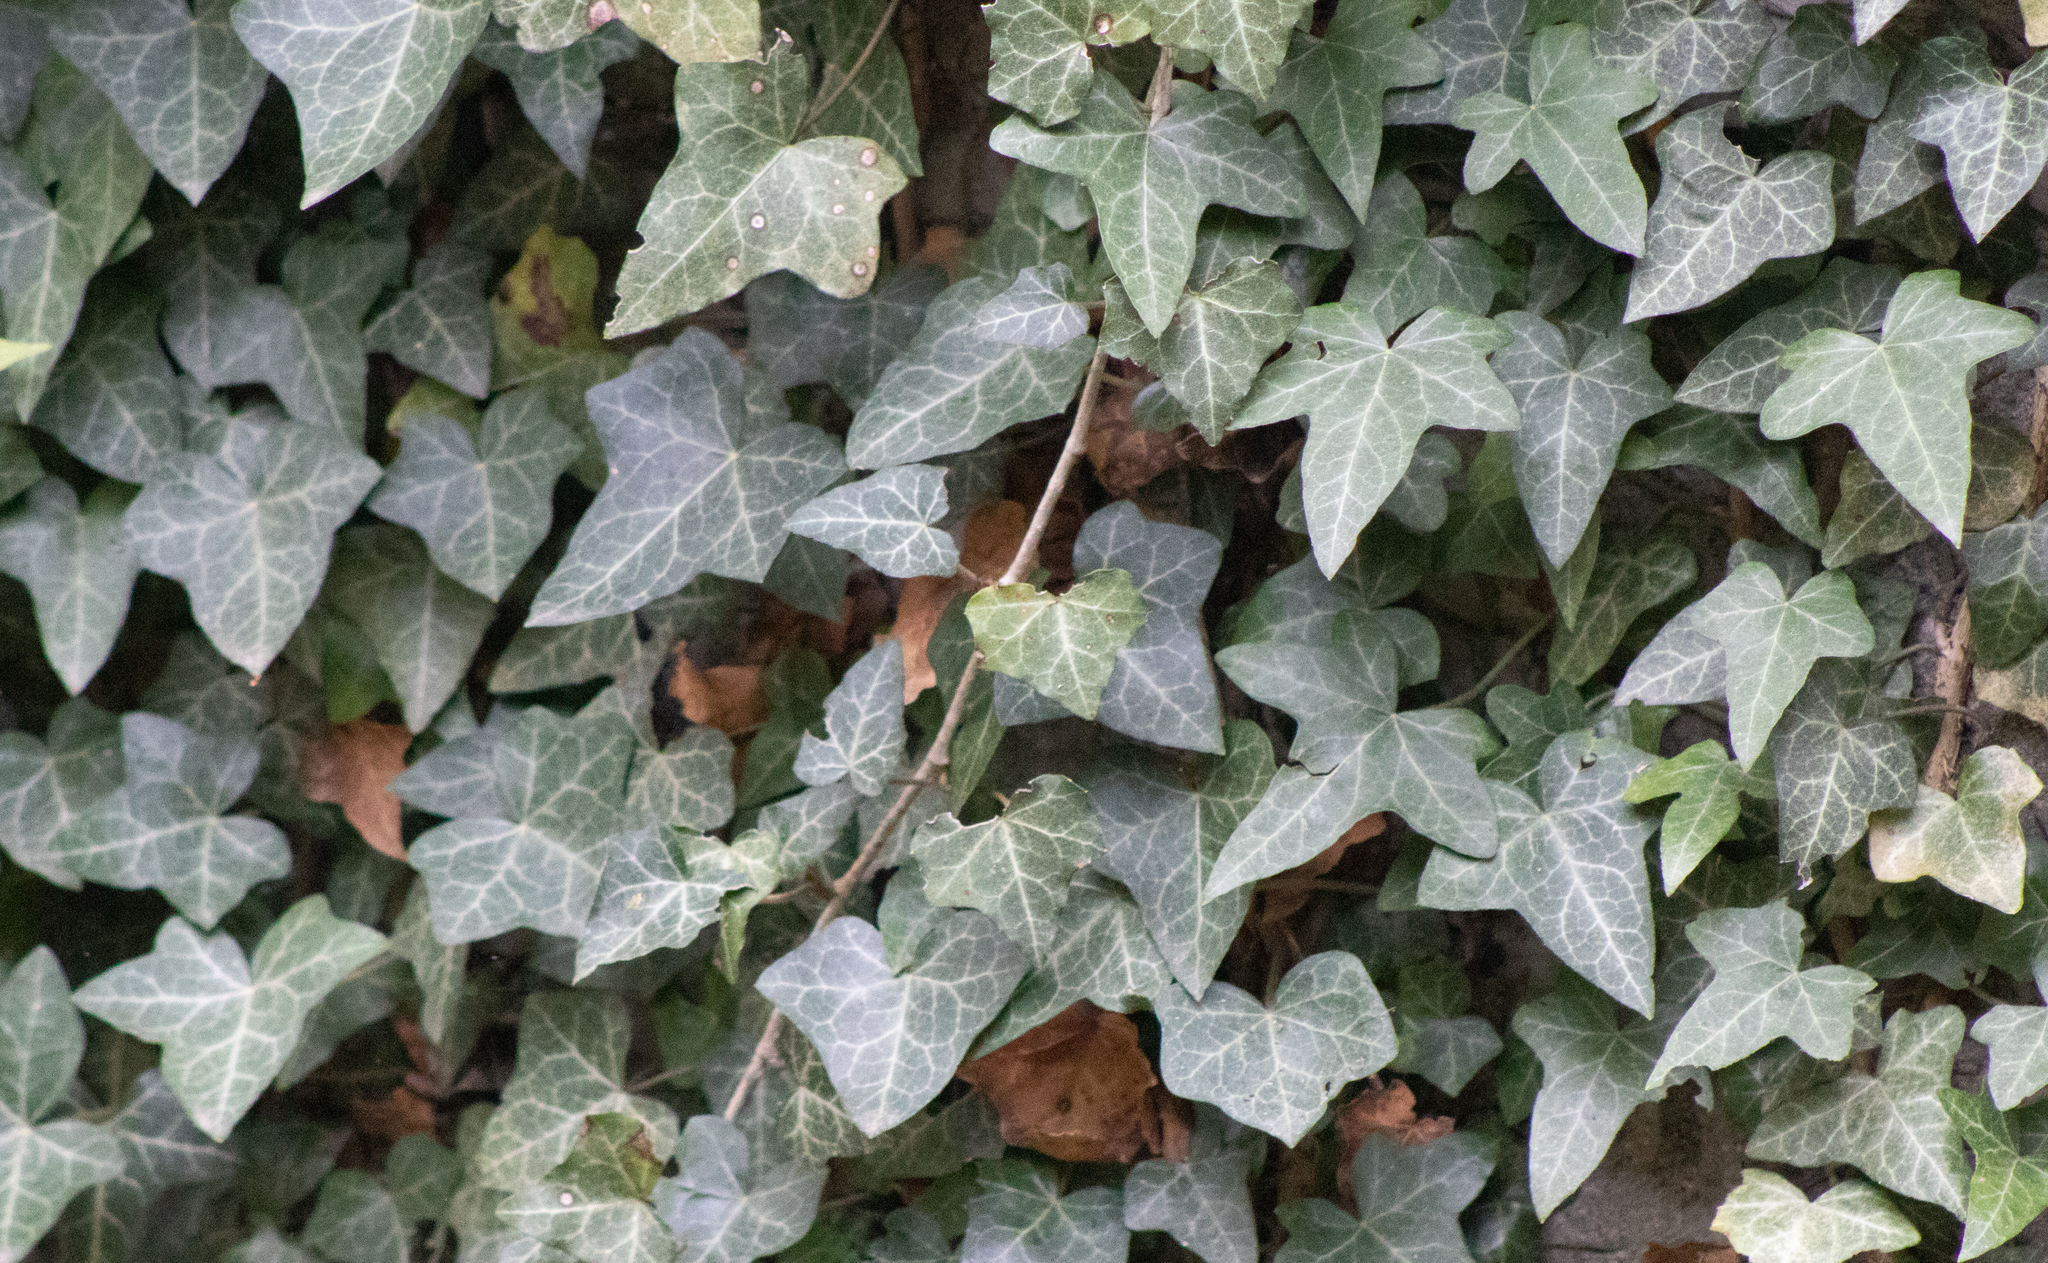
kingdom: Plantae
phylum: Tracheophyta
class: Magnoliopsida
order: Apiales
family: Araliaceae
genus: Hedera
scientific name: Hedera helix
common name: Ivy
